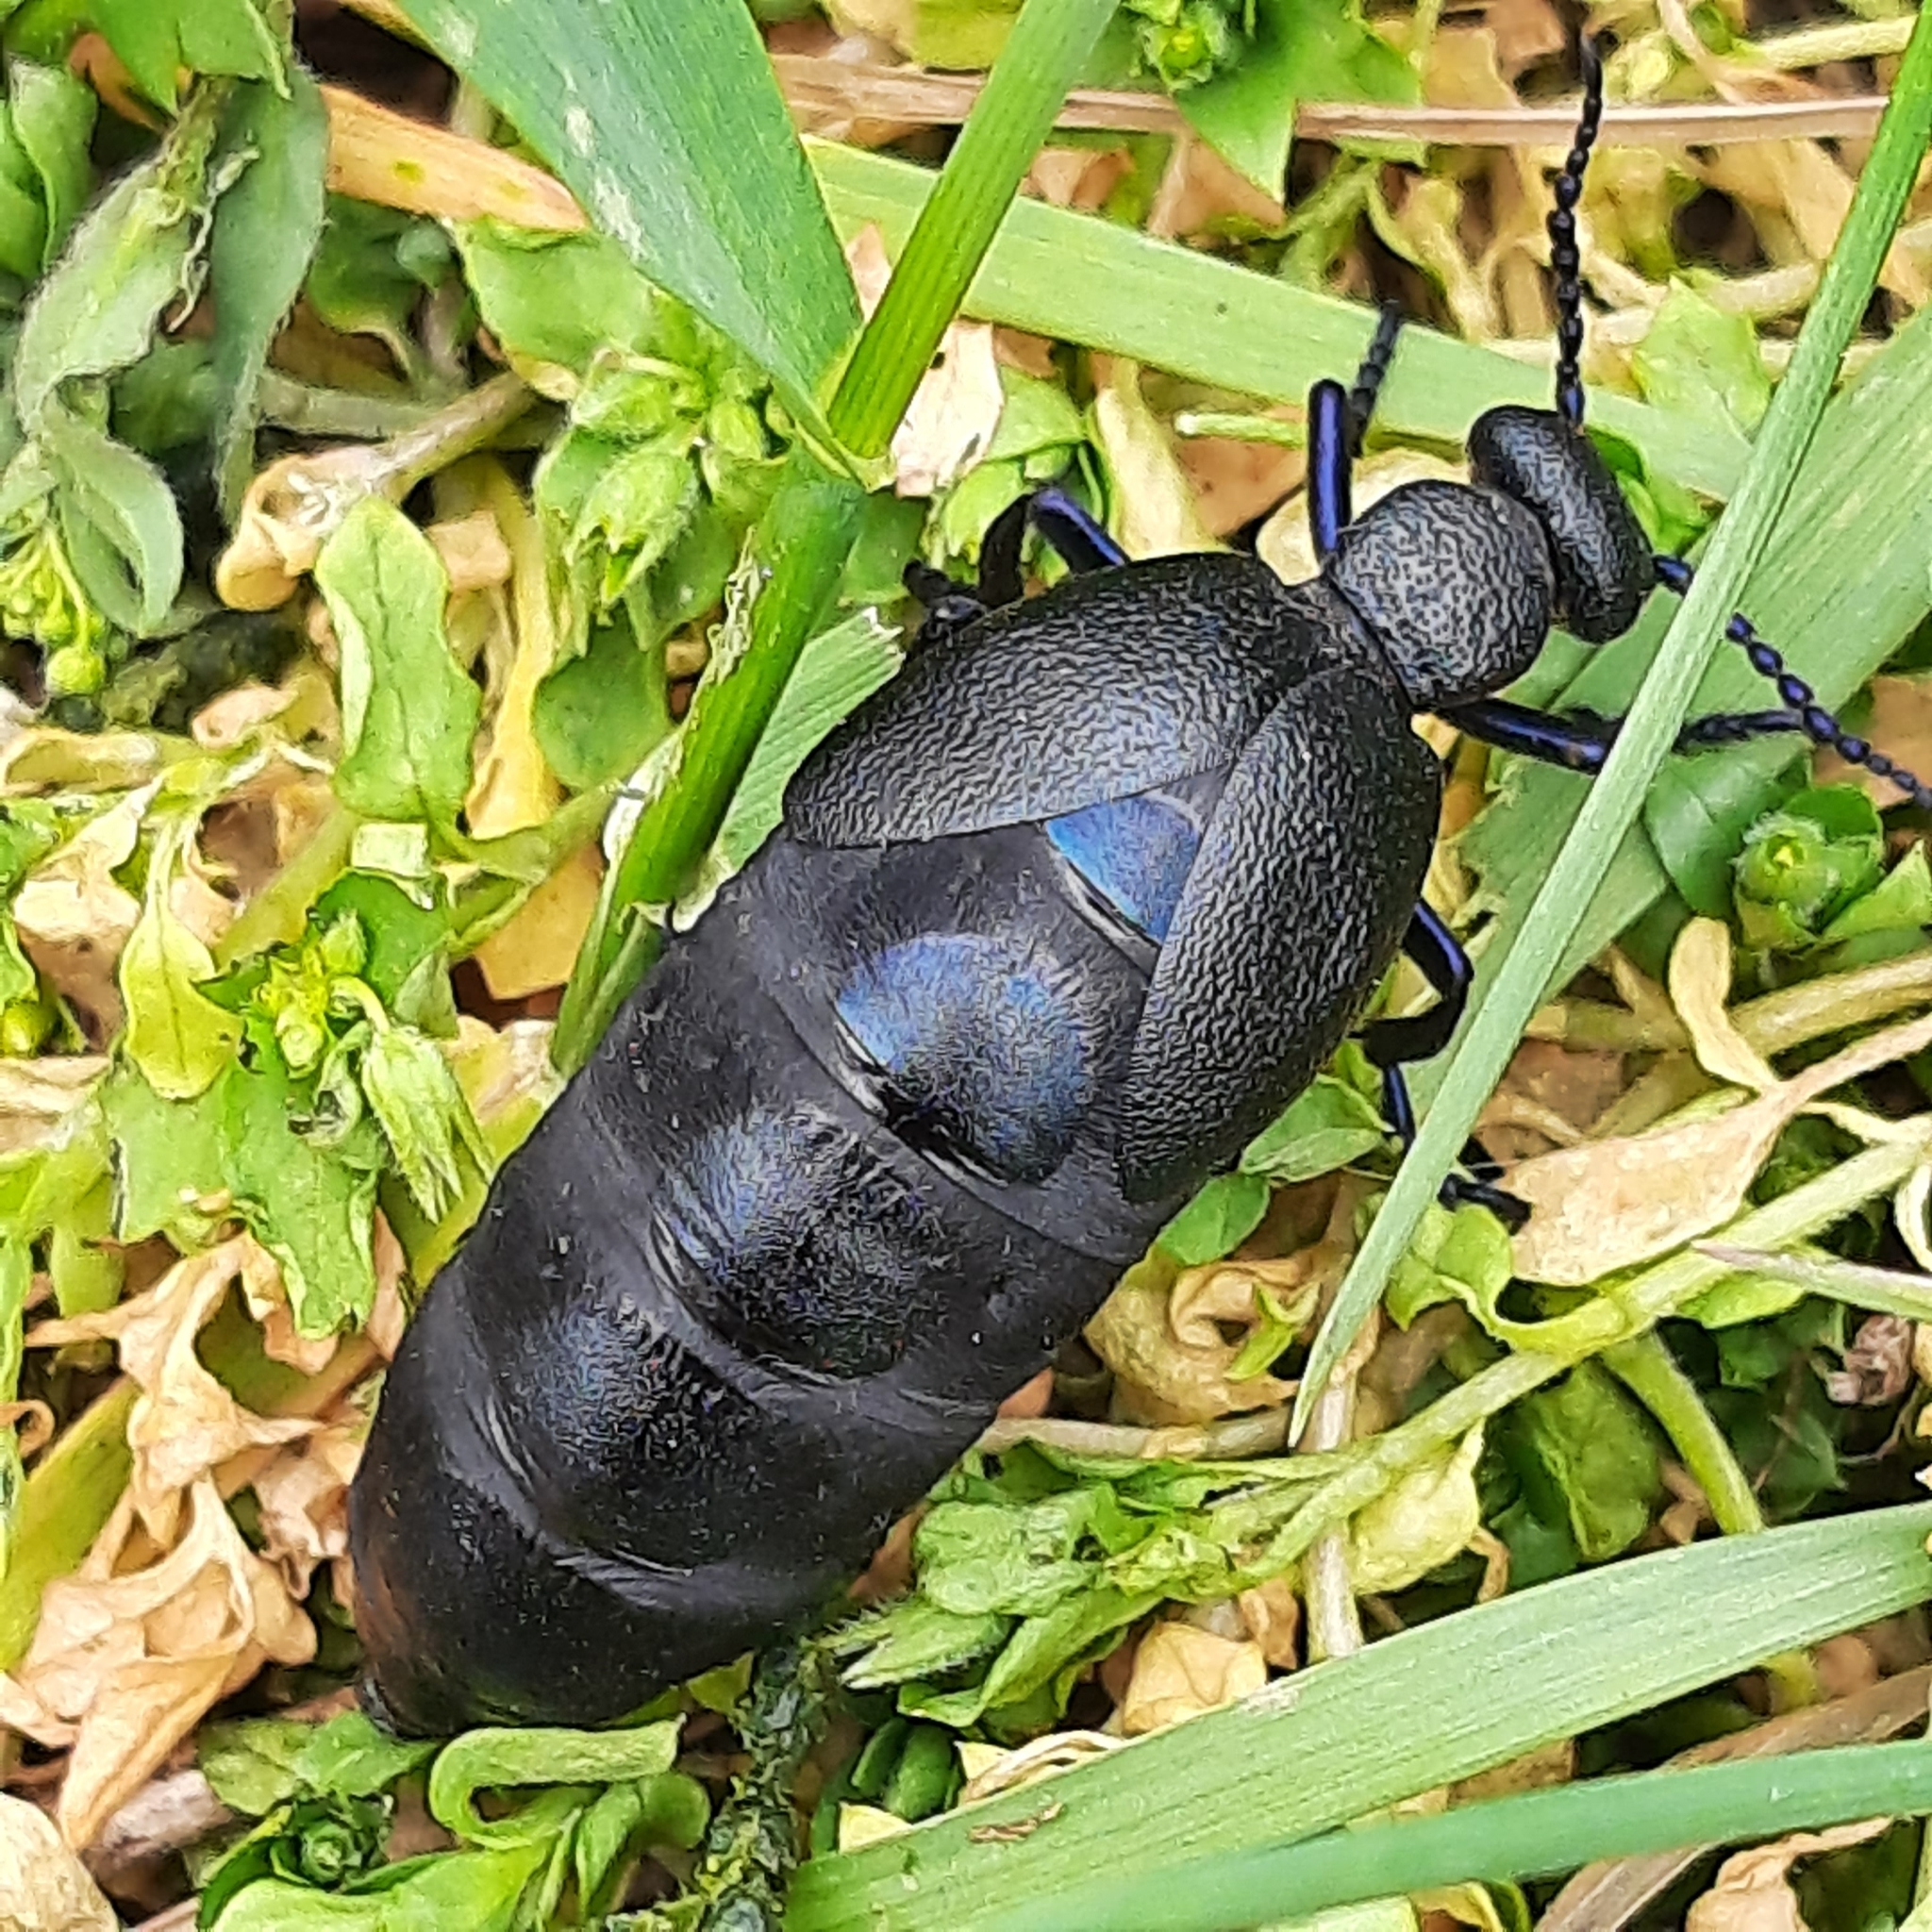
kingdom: Animalia
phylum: Arthropoda
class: Insecta
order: Coleoptera
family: Meloidae
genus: Meloe
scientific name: Meloe proscarabaeus
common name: Black oil-beetle
